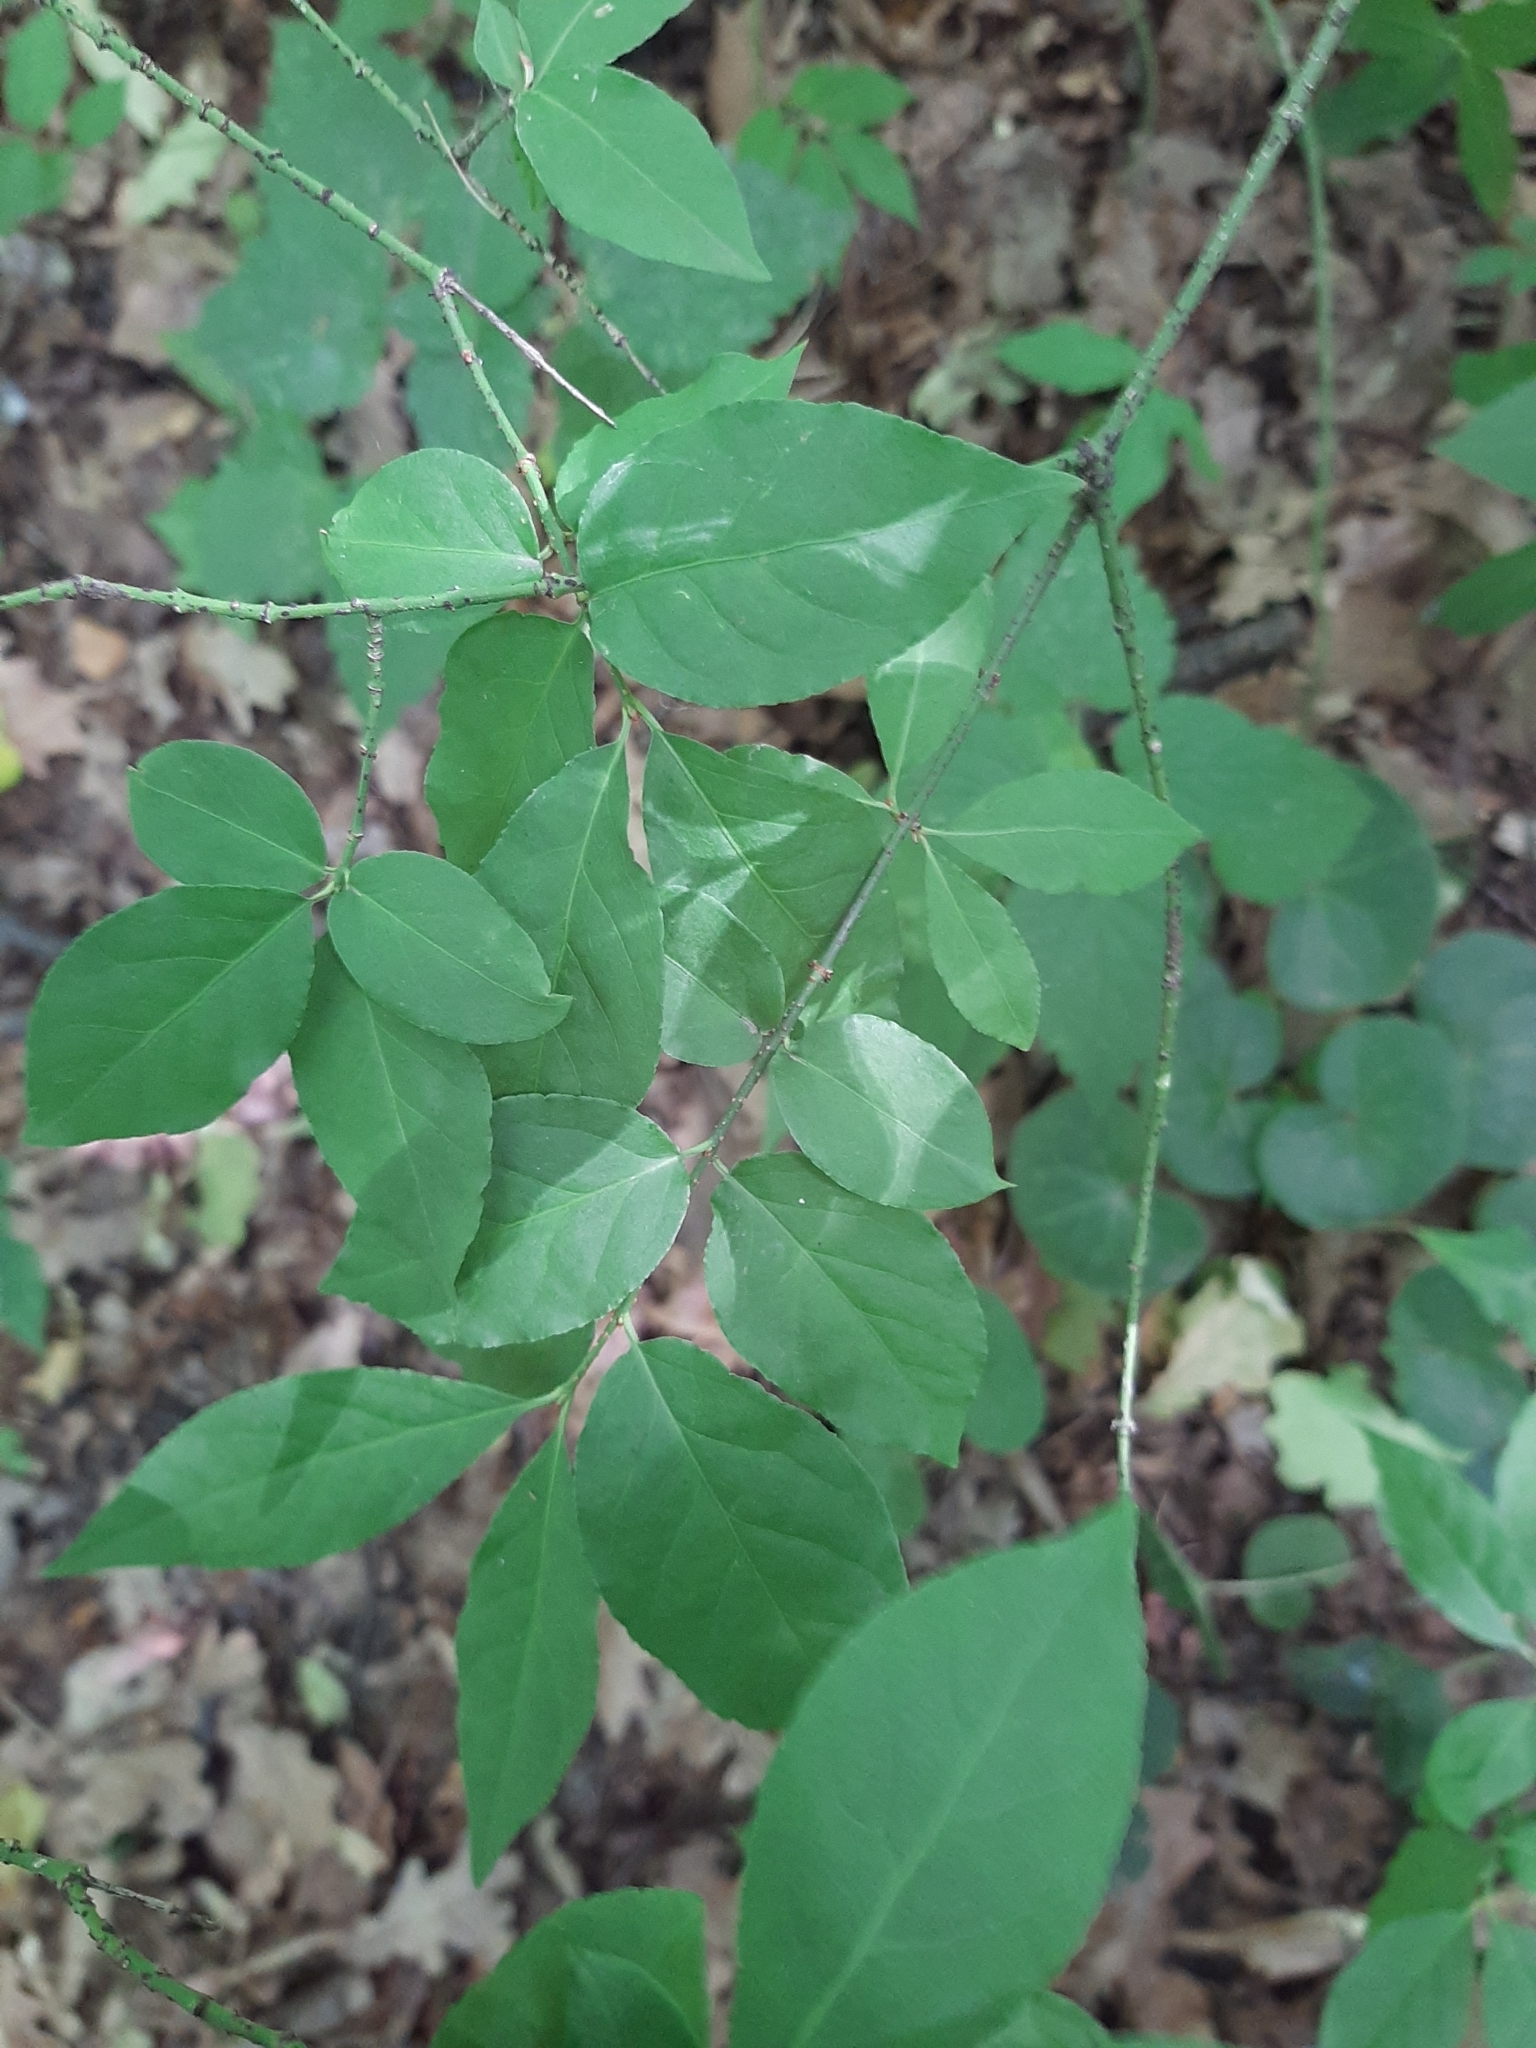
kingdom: Plantae
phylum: Tracheophyta
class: Magnoliopsida
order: Celastrales
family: Celastraceae
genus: Euonymus
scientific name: Euonymus verrucosus
